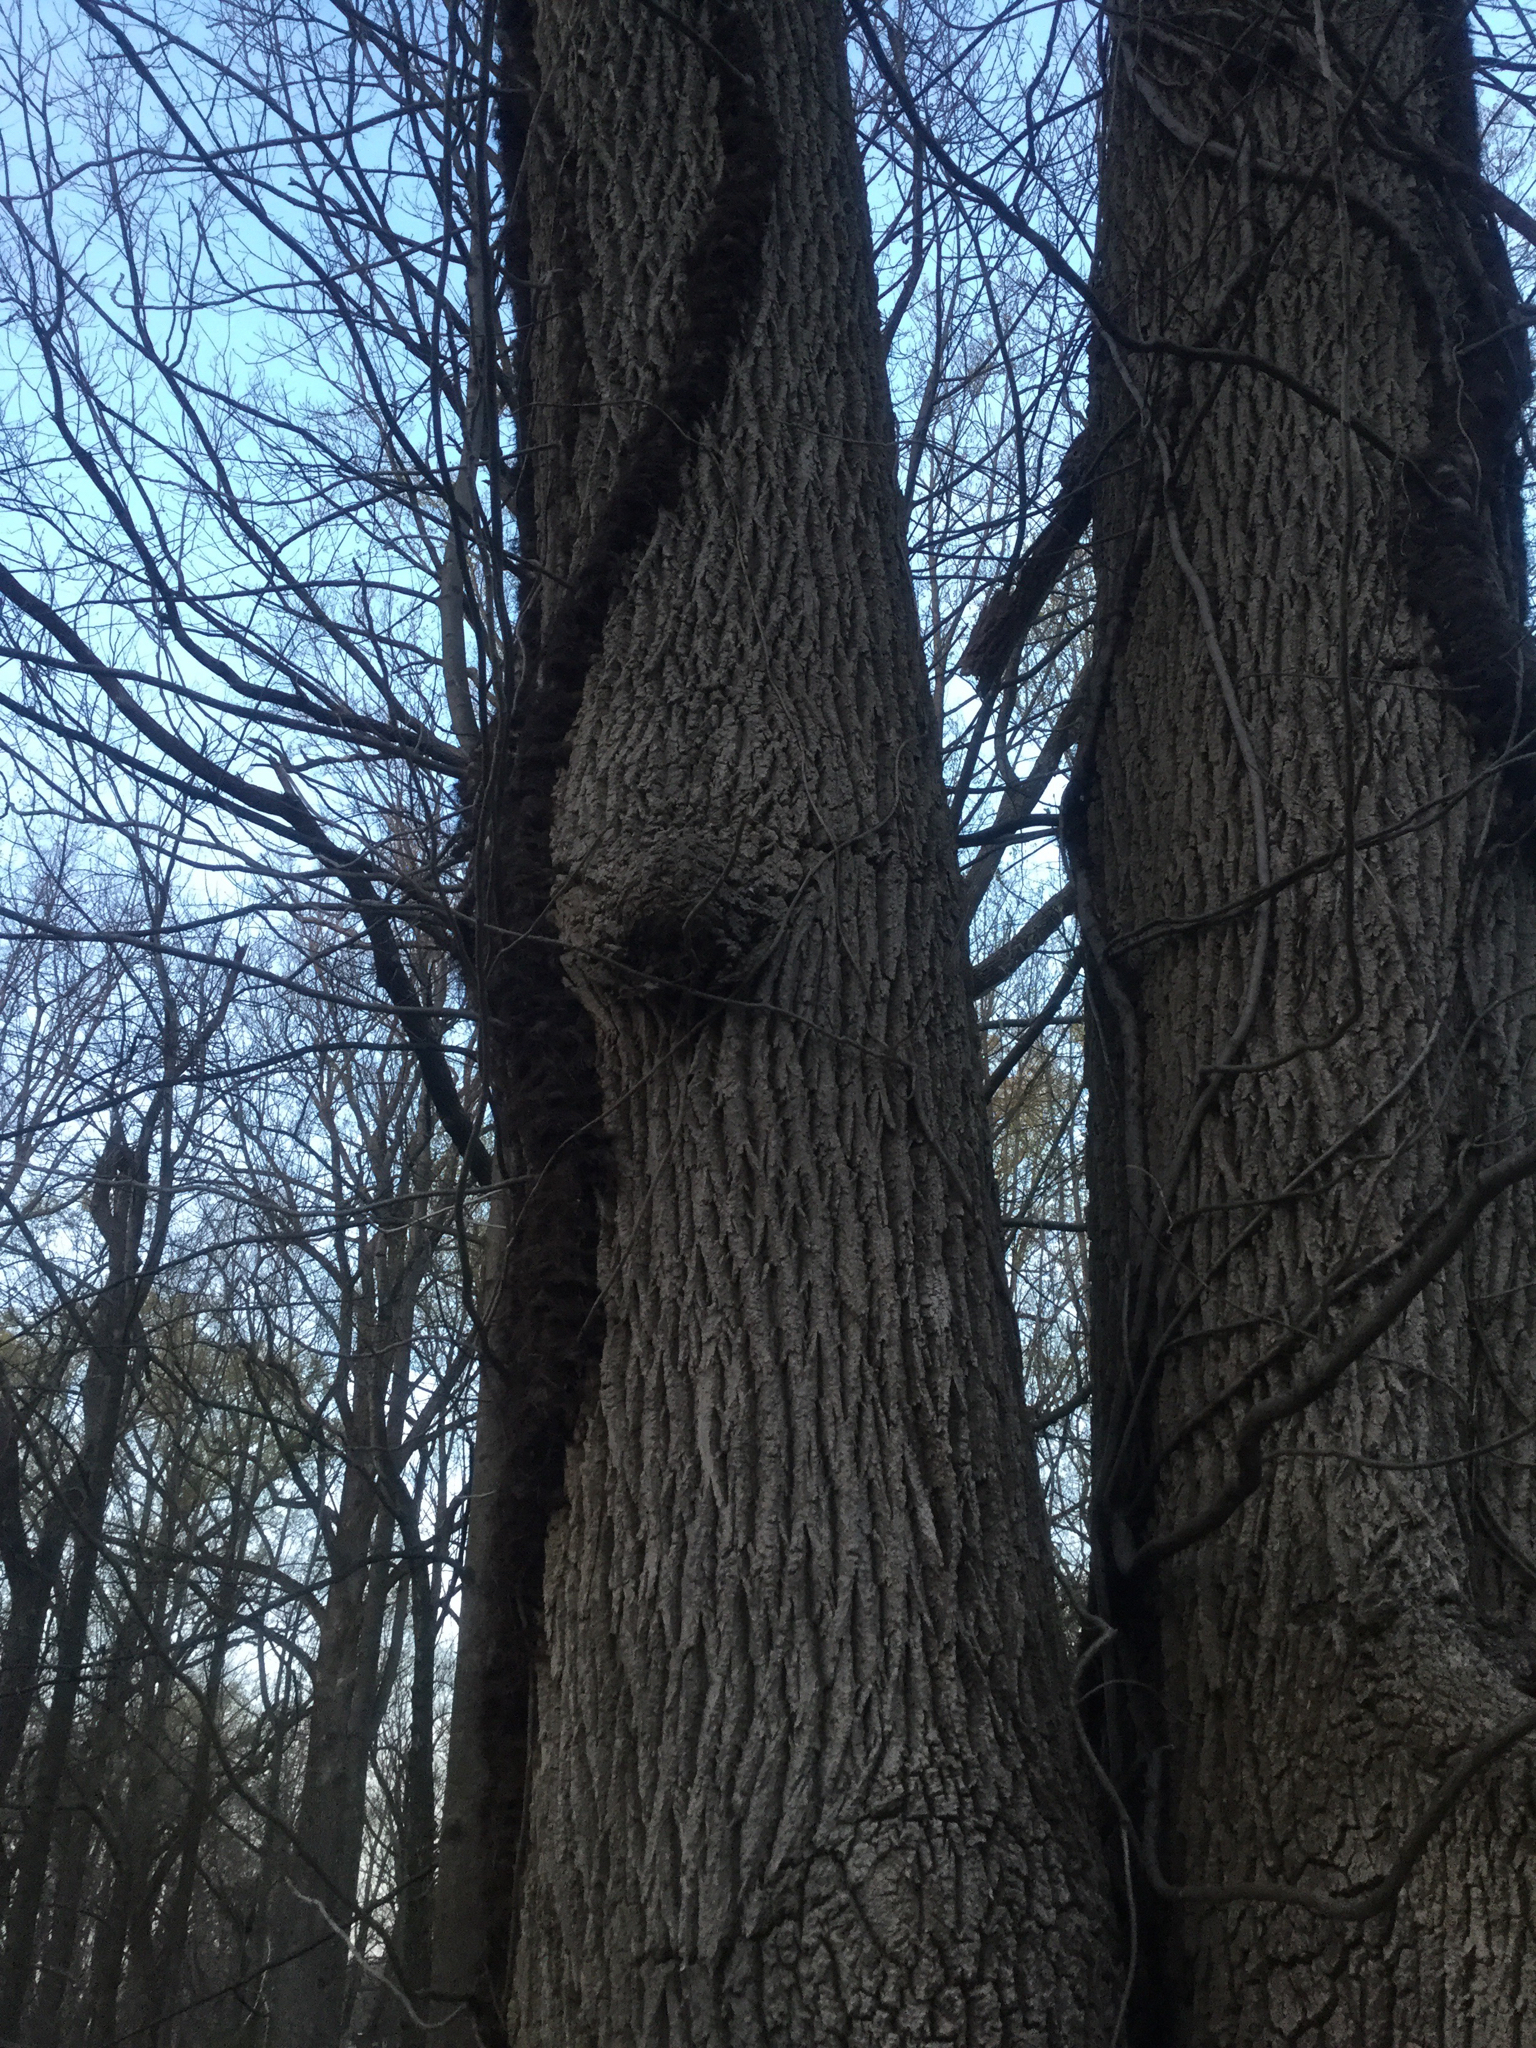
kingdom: Plantae
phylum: Tracheophyta
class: Magnoliopsida
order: Sapindales
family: Anacardiaceae
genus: Toxicodendron
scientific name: Toxicodendron radicans
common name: Poison ivy
